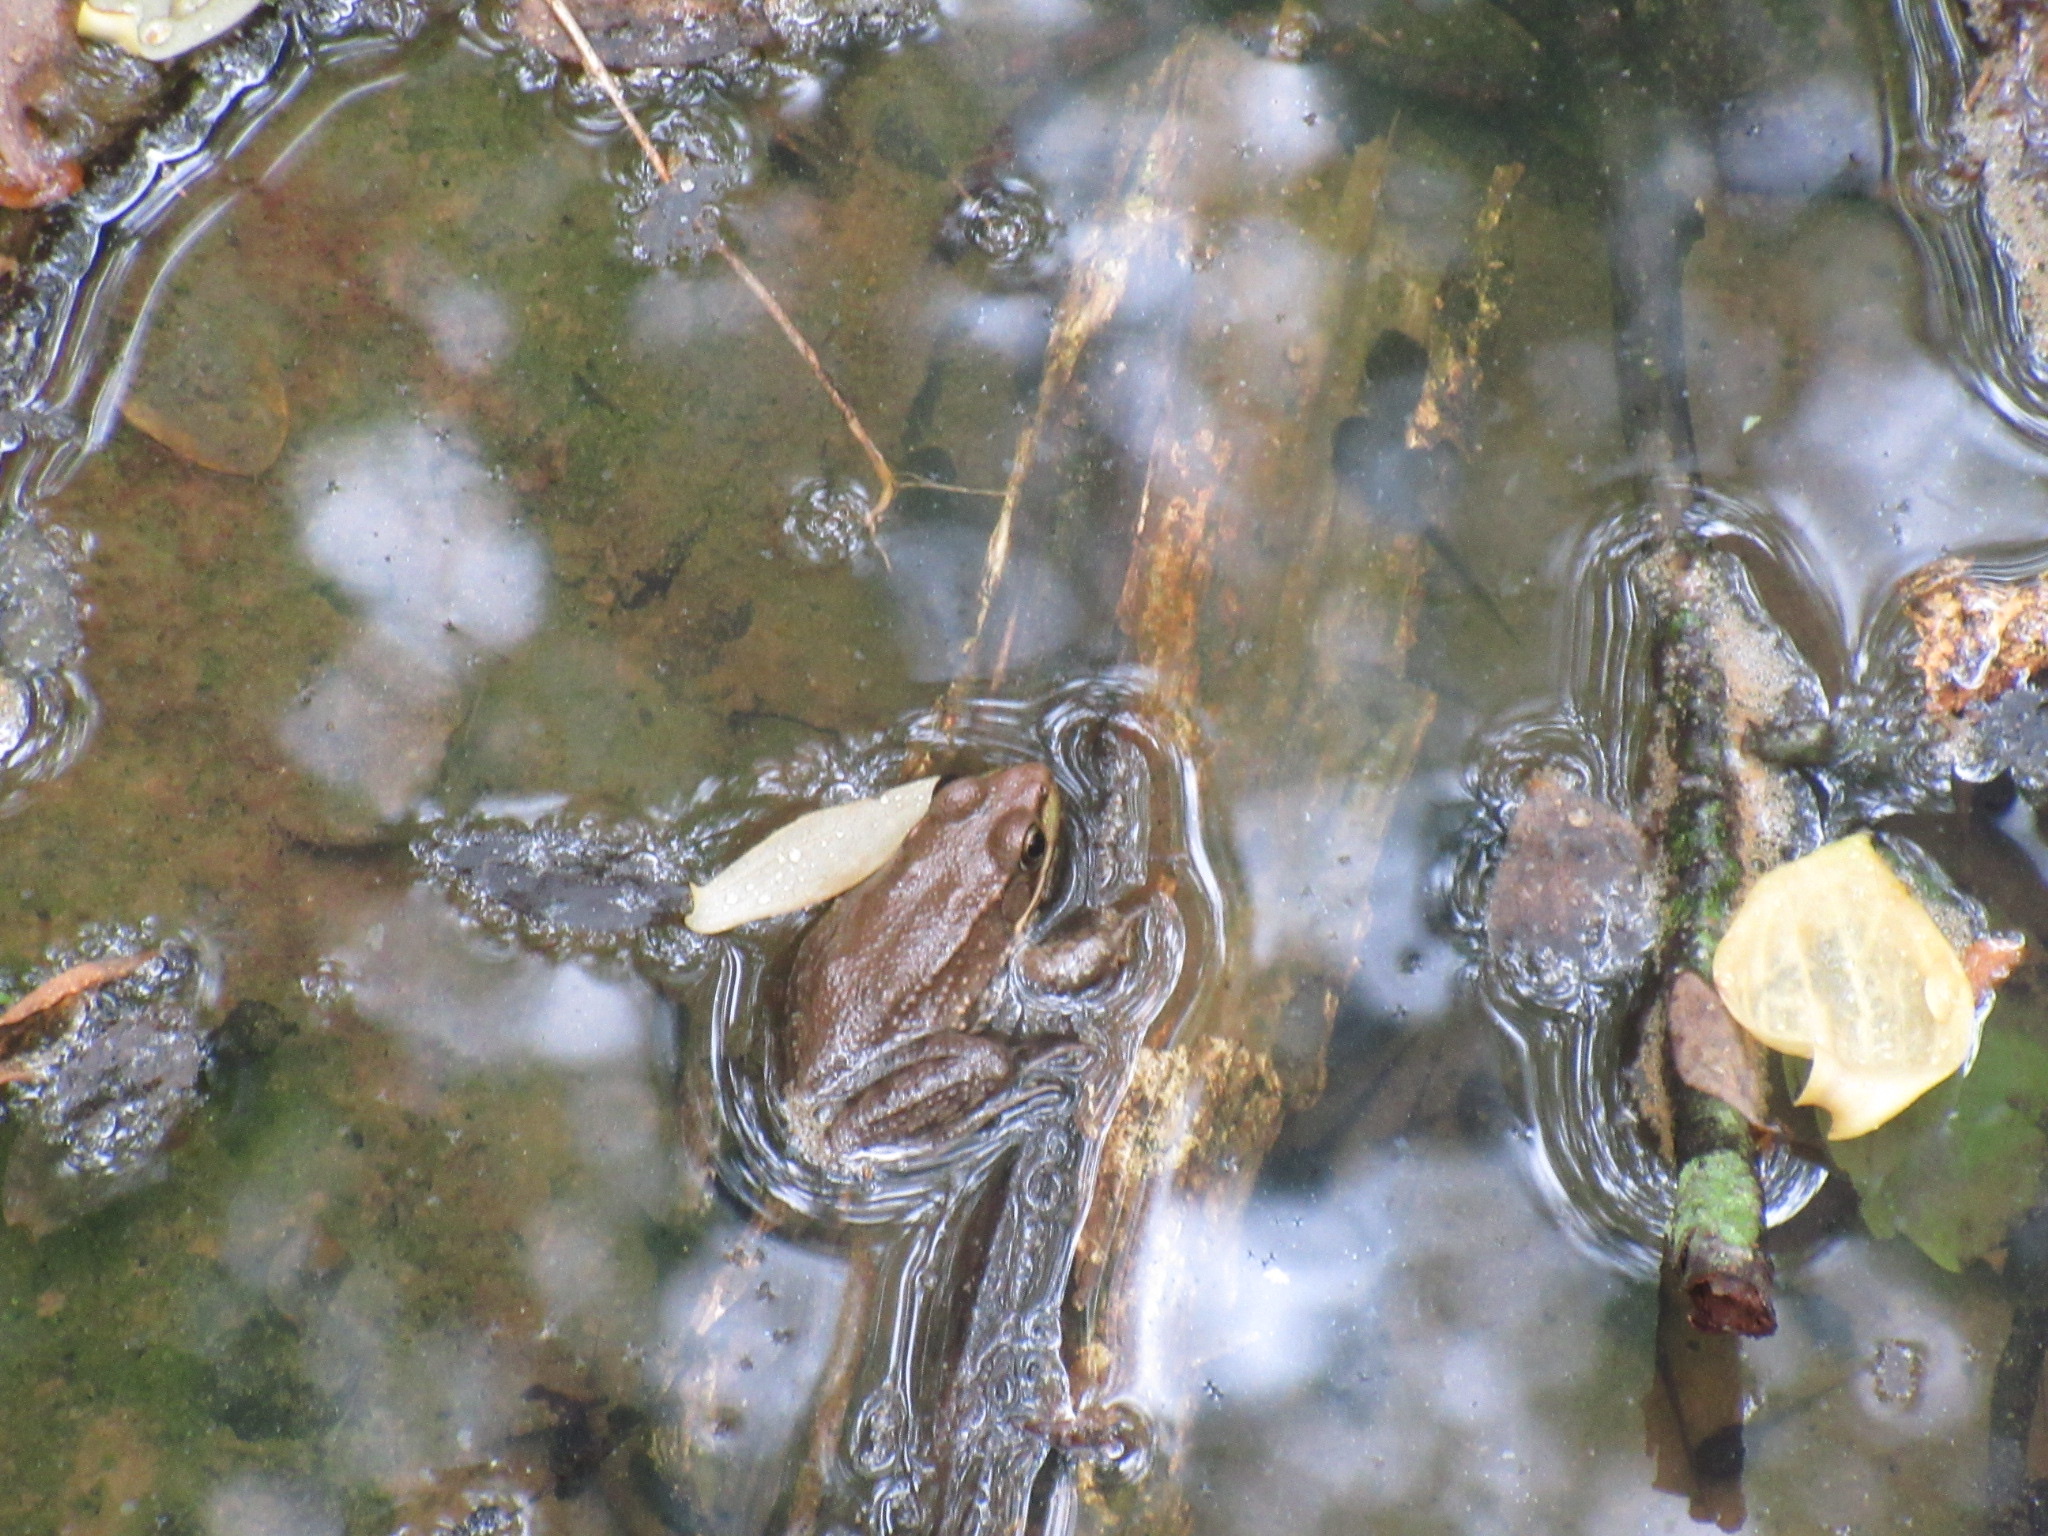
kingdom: Animalia
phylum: Chordata
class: Amphibia
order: Anura
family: Ranidae
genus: Lithobates
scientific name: Lithobates clamitans
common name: Green frog
